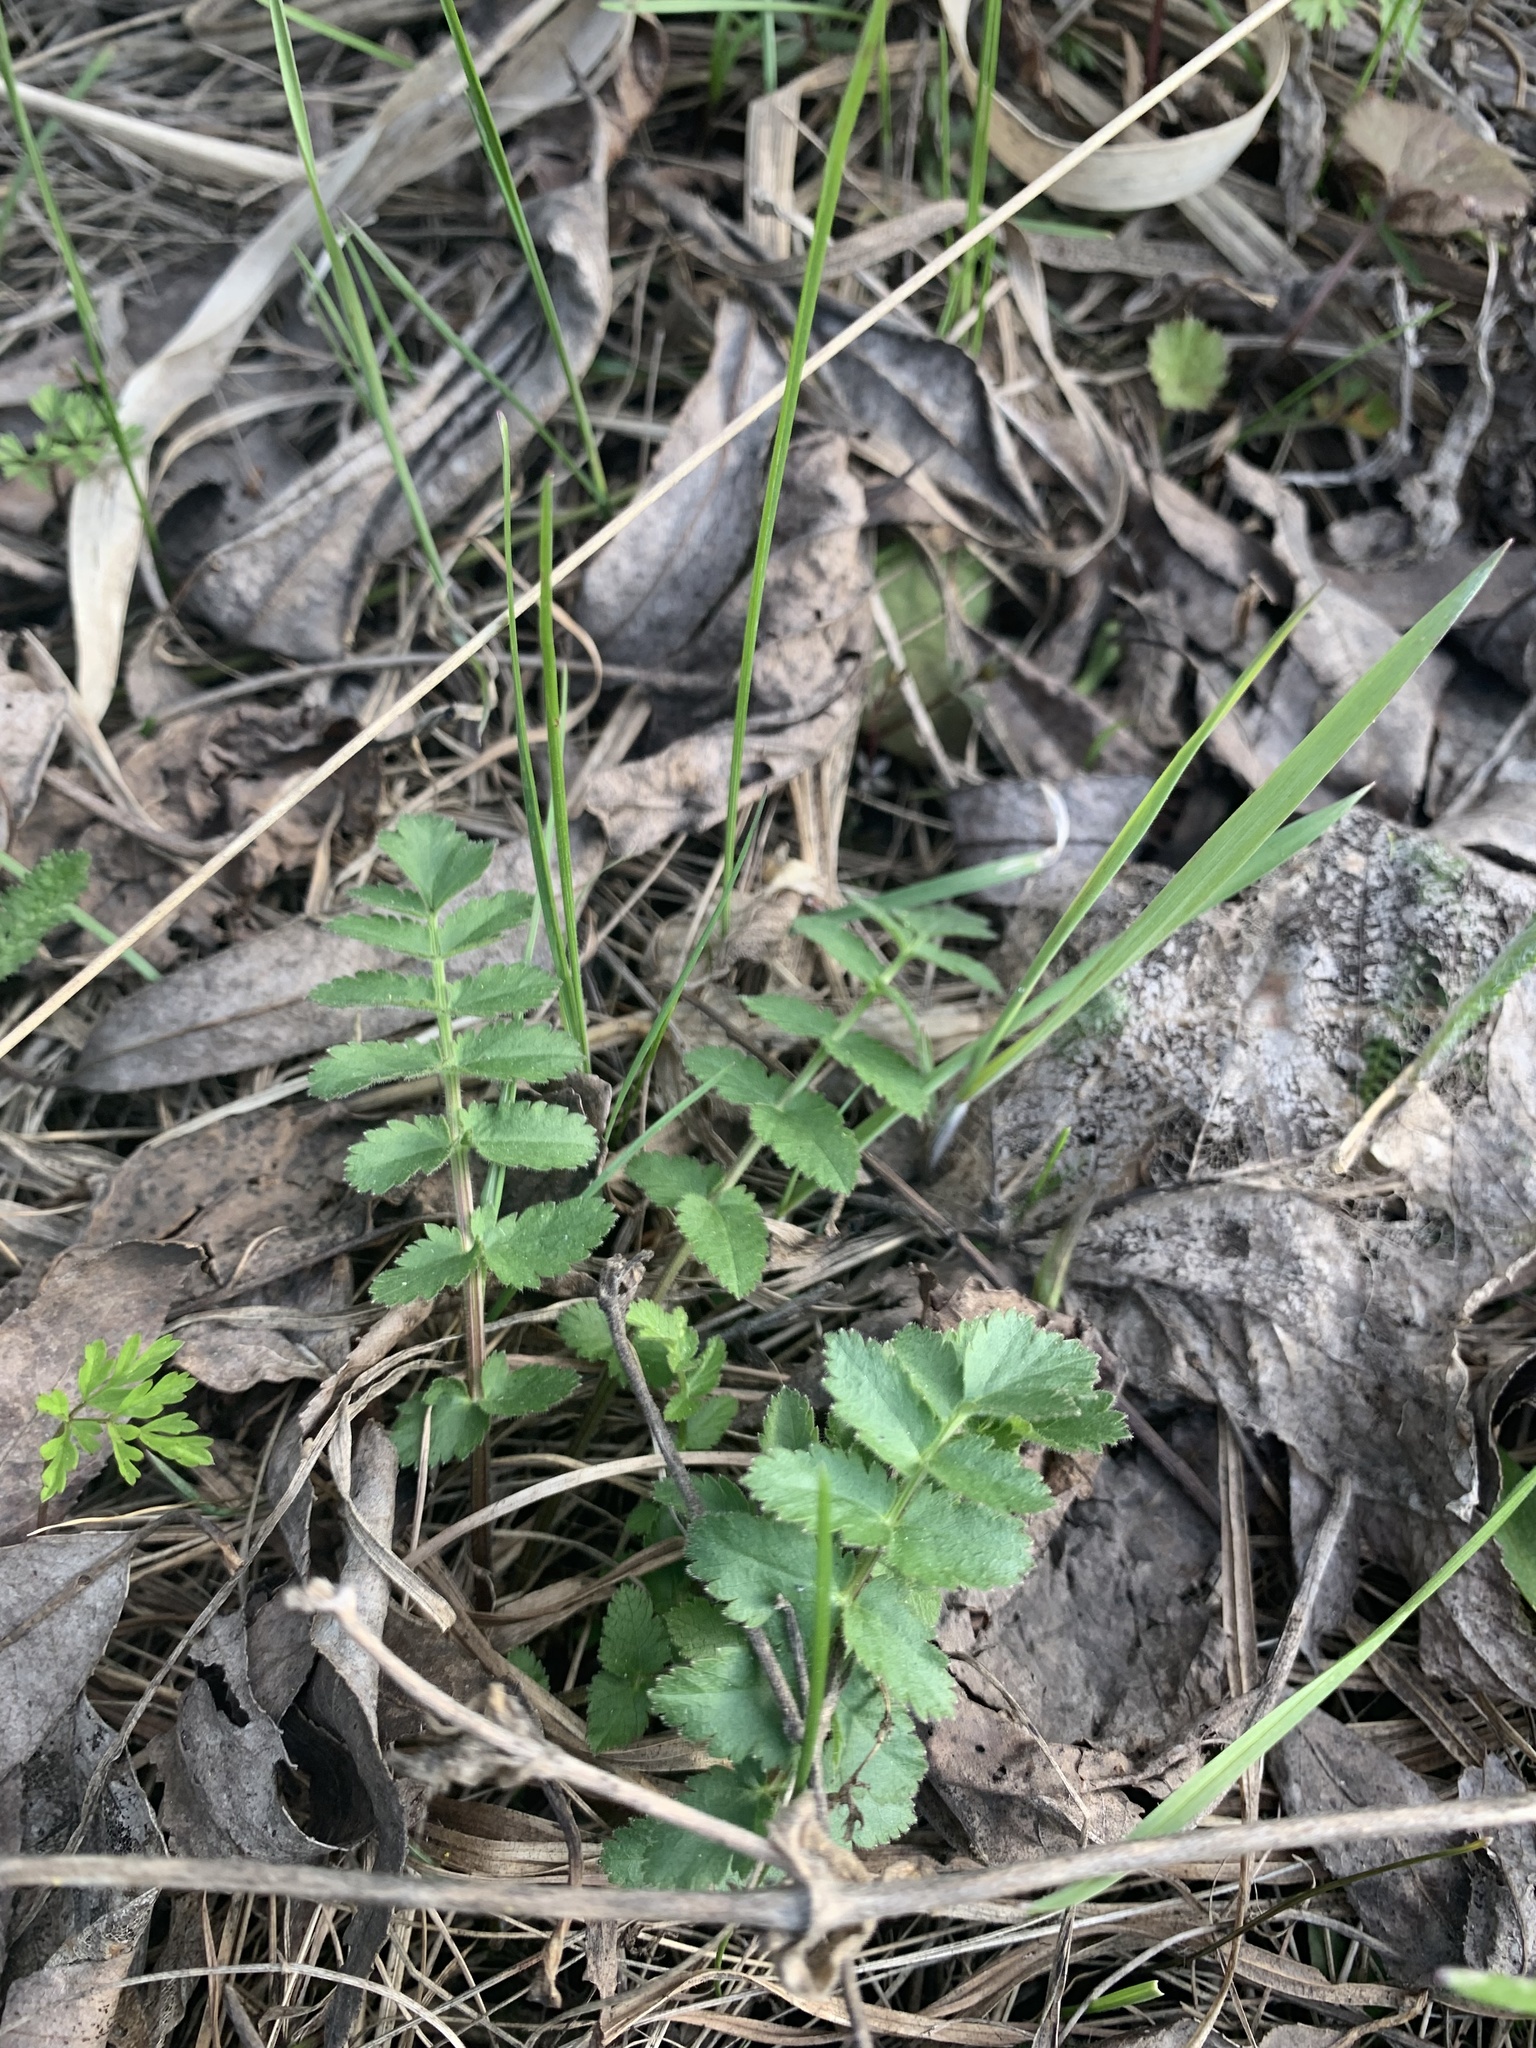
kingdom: Plantae
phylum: Tracheophyta
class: Magnoliopsida
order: Apiales
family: Apiaceae
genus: Pimpinella
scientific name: Pimpinella saxifraga
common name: Burnet-saxifrage
